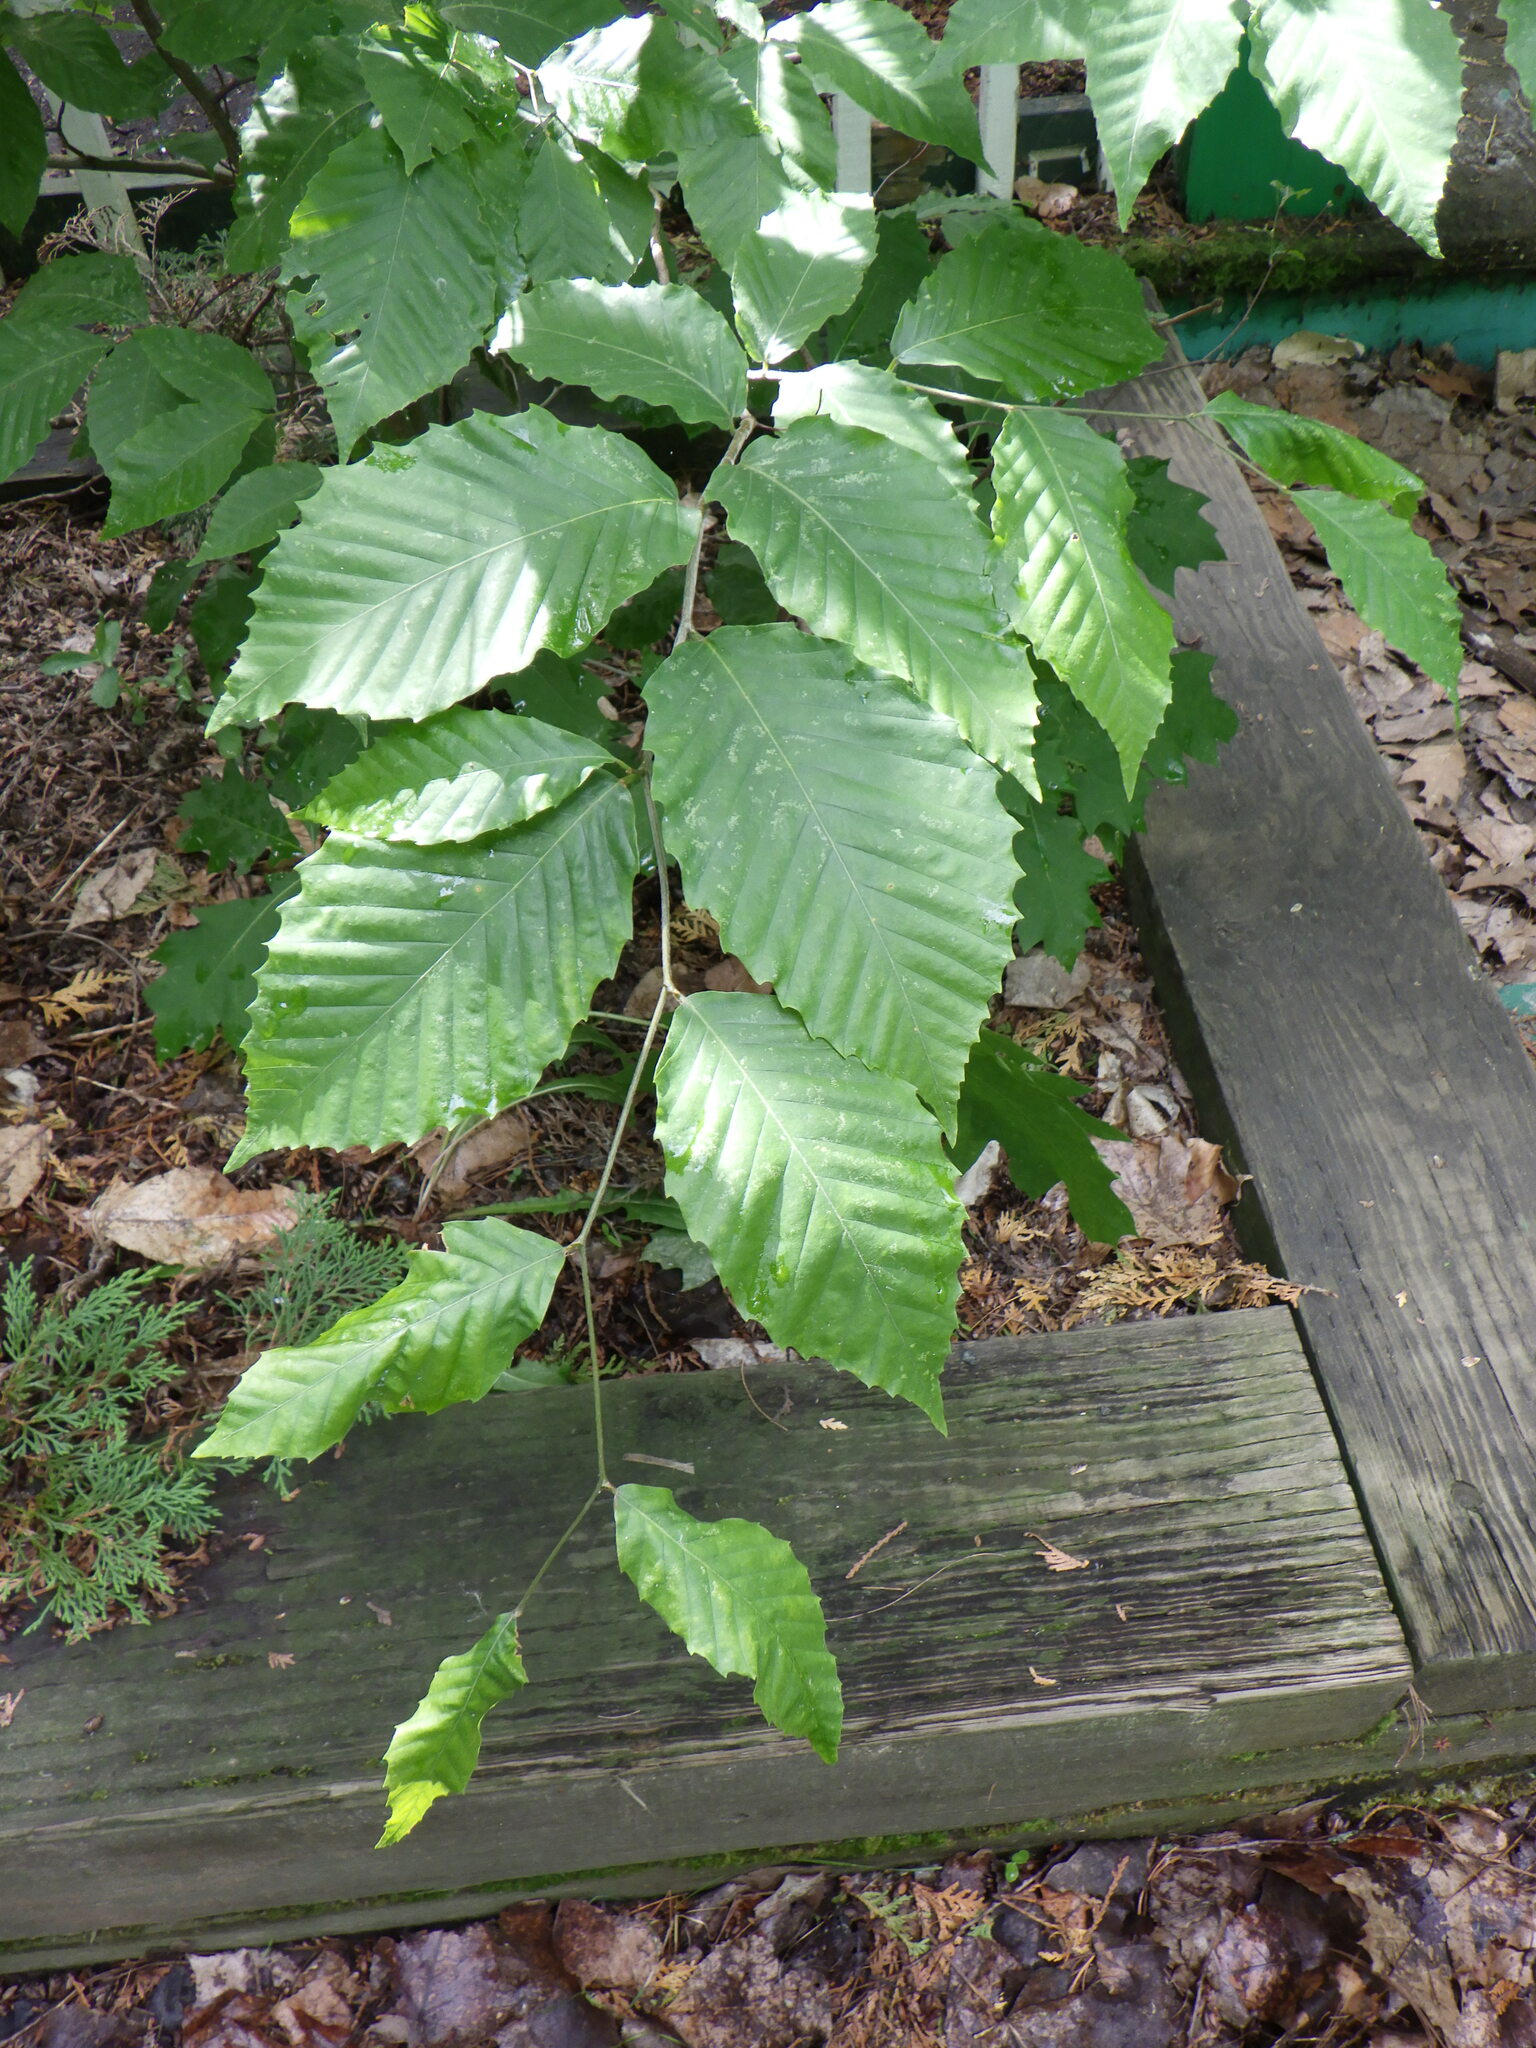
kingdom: Plantae
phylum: Tracheophyta
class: Magnoliopsida
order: Fagales
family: Fagaceae
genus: Fagus
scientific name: Fagus grandifolia
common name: American beech
